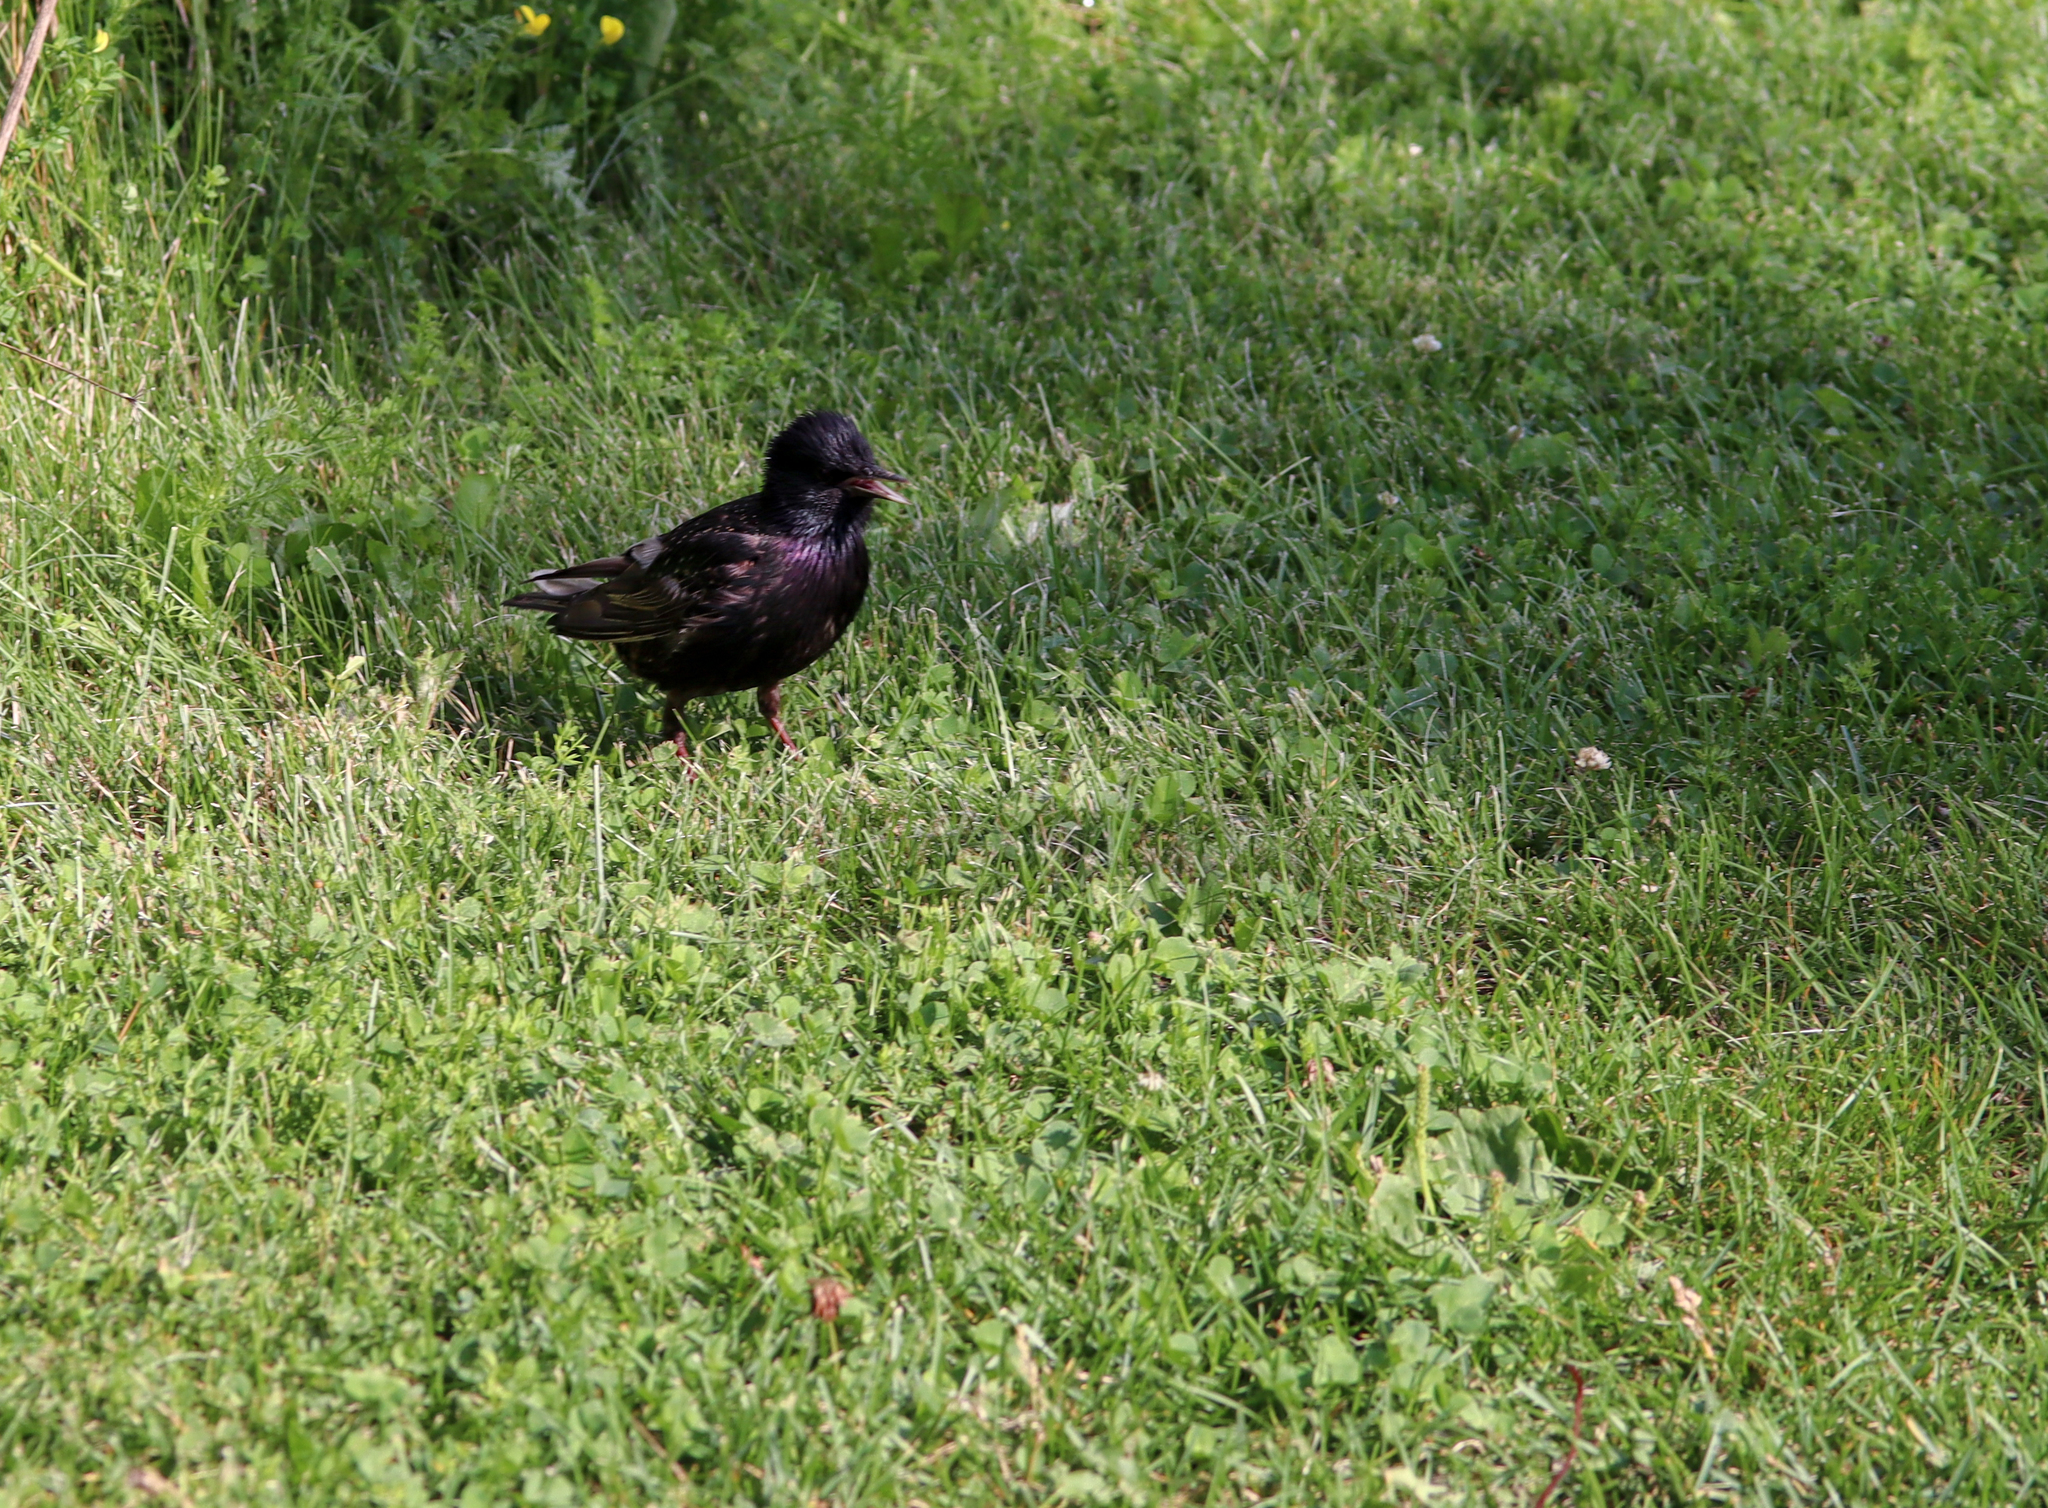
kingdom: Animalia
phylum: Chordata
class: Aves
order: Passeriformes
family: Sturnidae
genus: Sturnus
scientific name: Sturnus vulgaris
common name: Common starling
